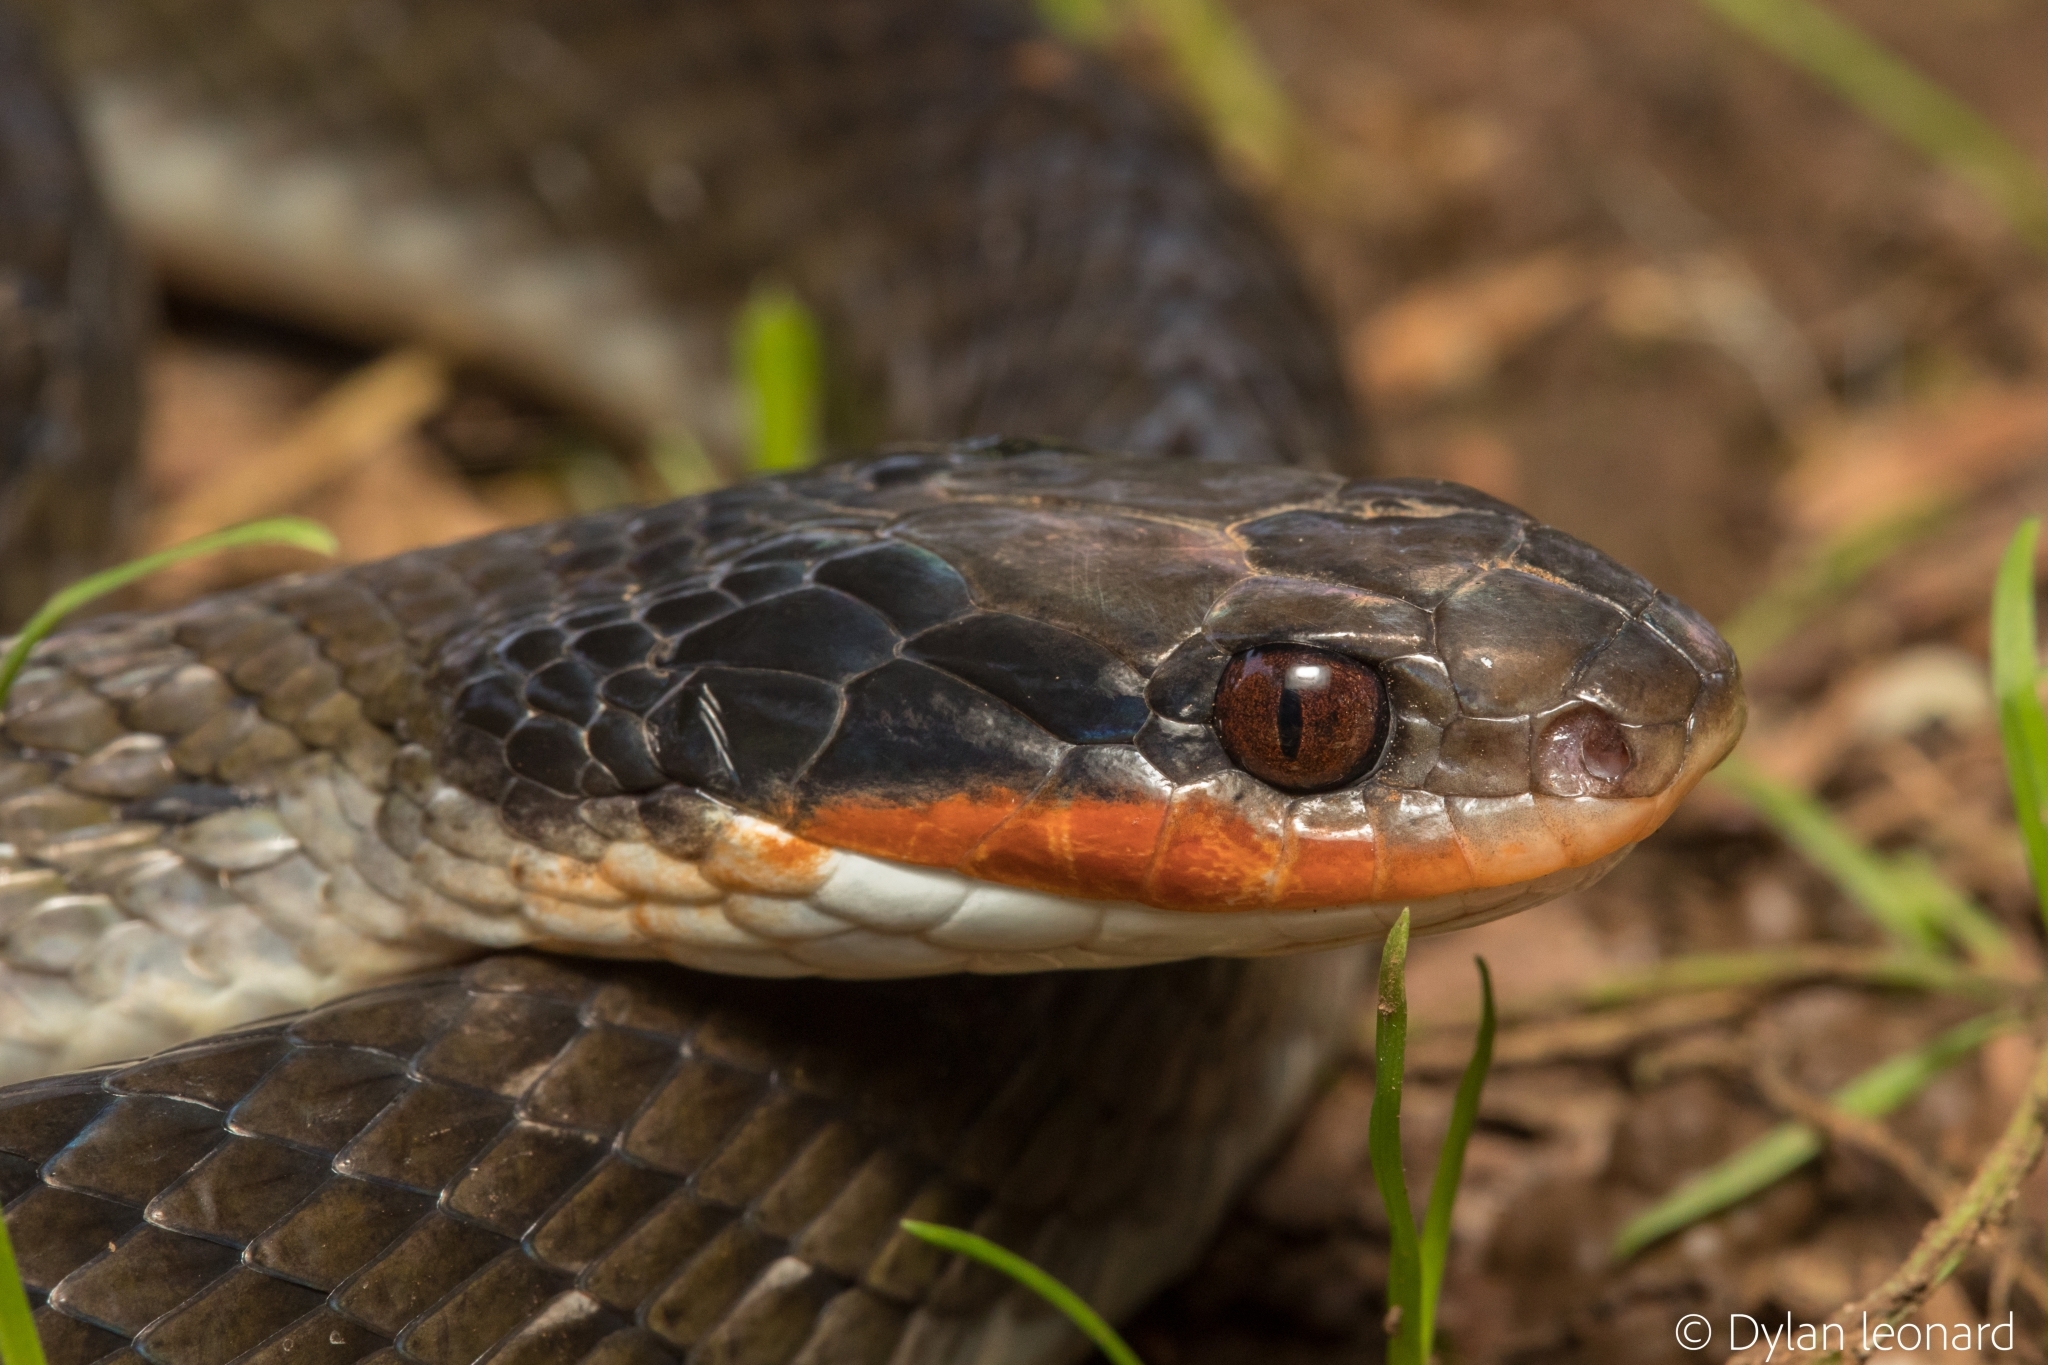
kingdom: Animalia
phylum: Chordata
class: Squamata
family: Colubridae
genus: Crotaphopeltis
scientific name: Crotaphopeltis hotamboeia
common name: Red-lipped snake
